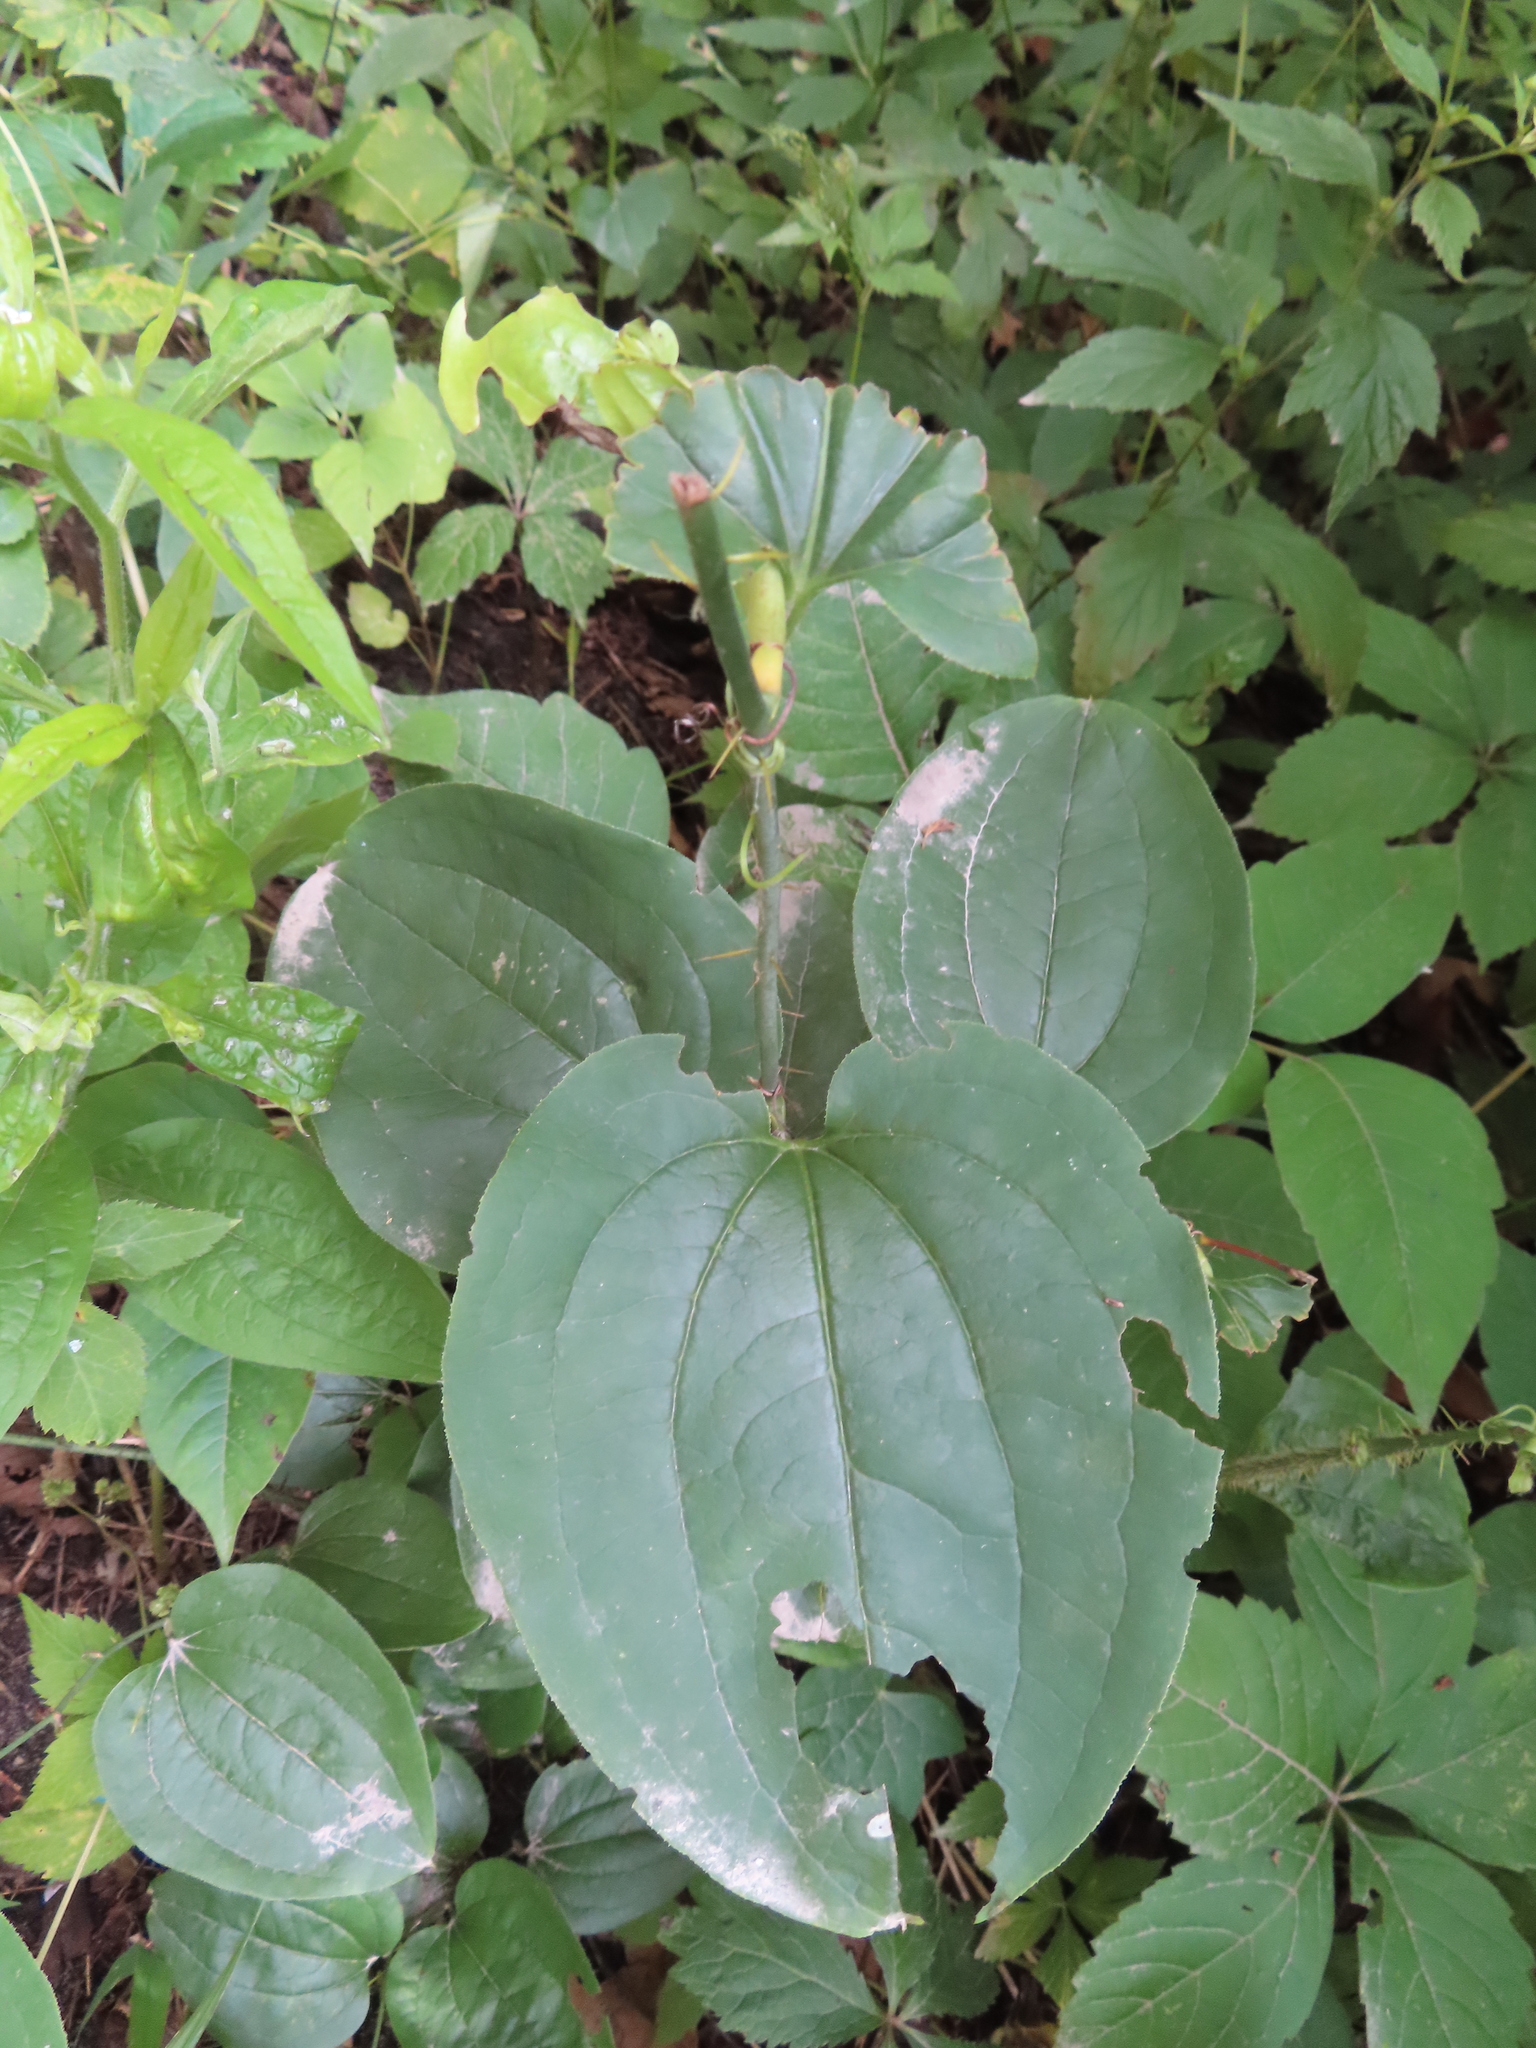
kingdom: Plantae
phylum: Tracheophyta
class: Liliopsida
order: Liliales
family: Smilacaceae
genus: Smilax
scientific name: Smilax tamnoides
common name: Hellfetter
